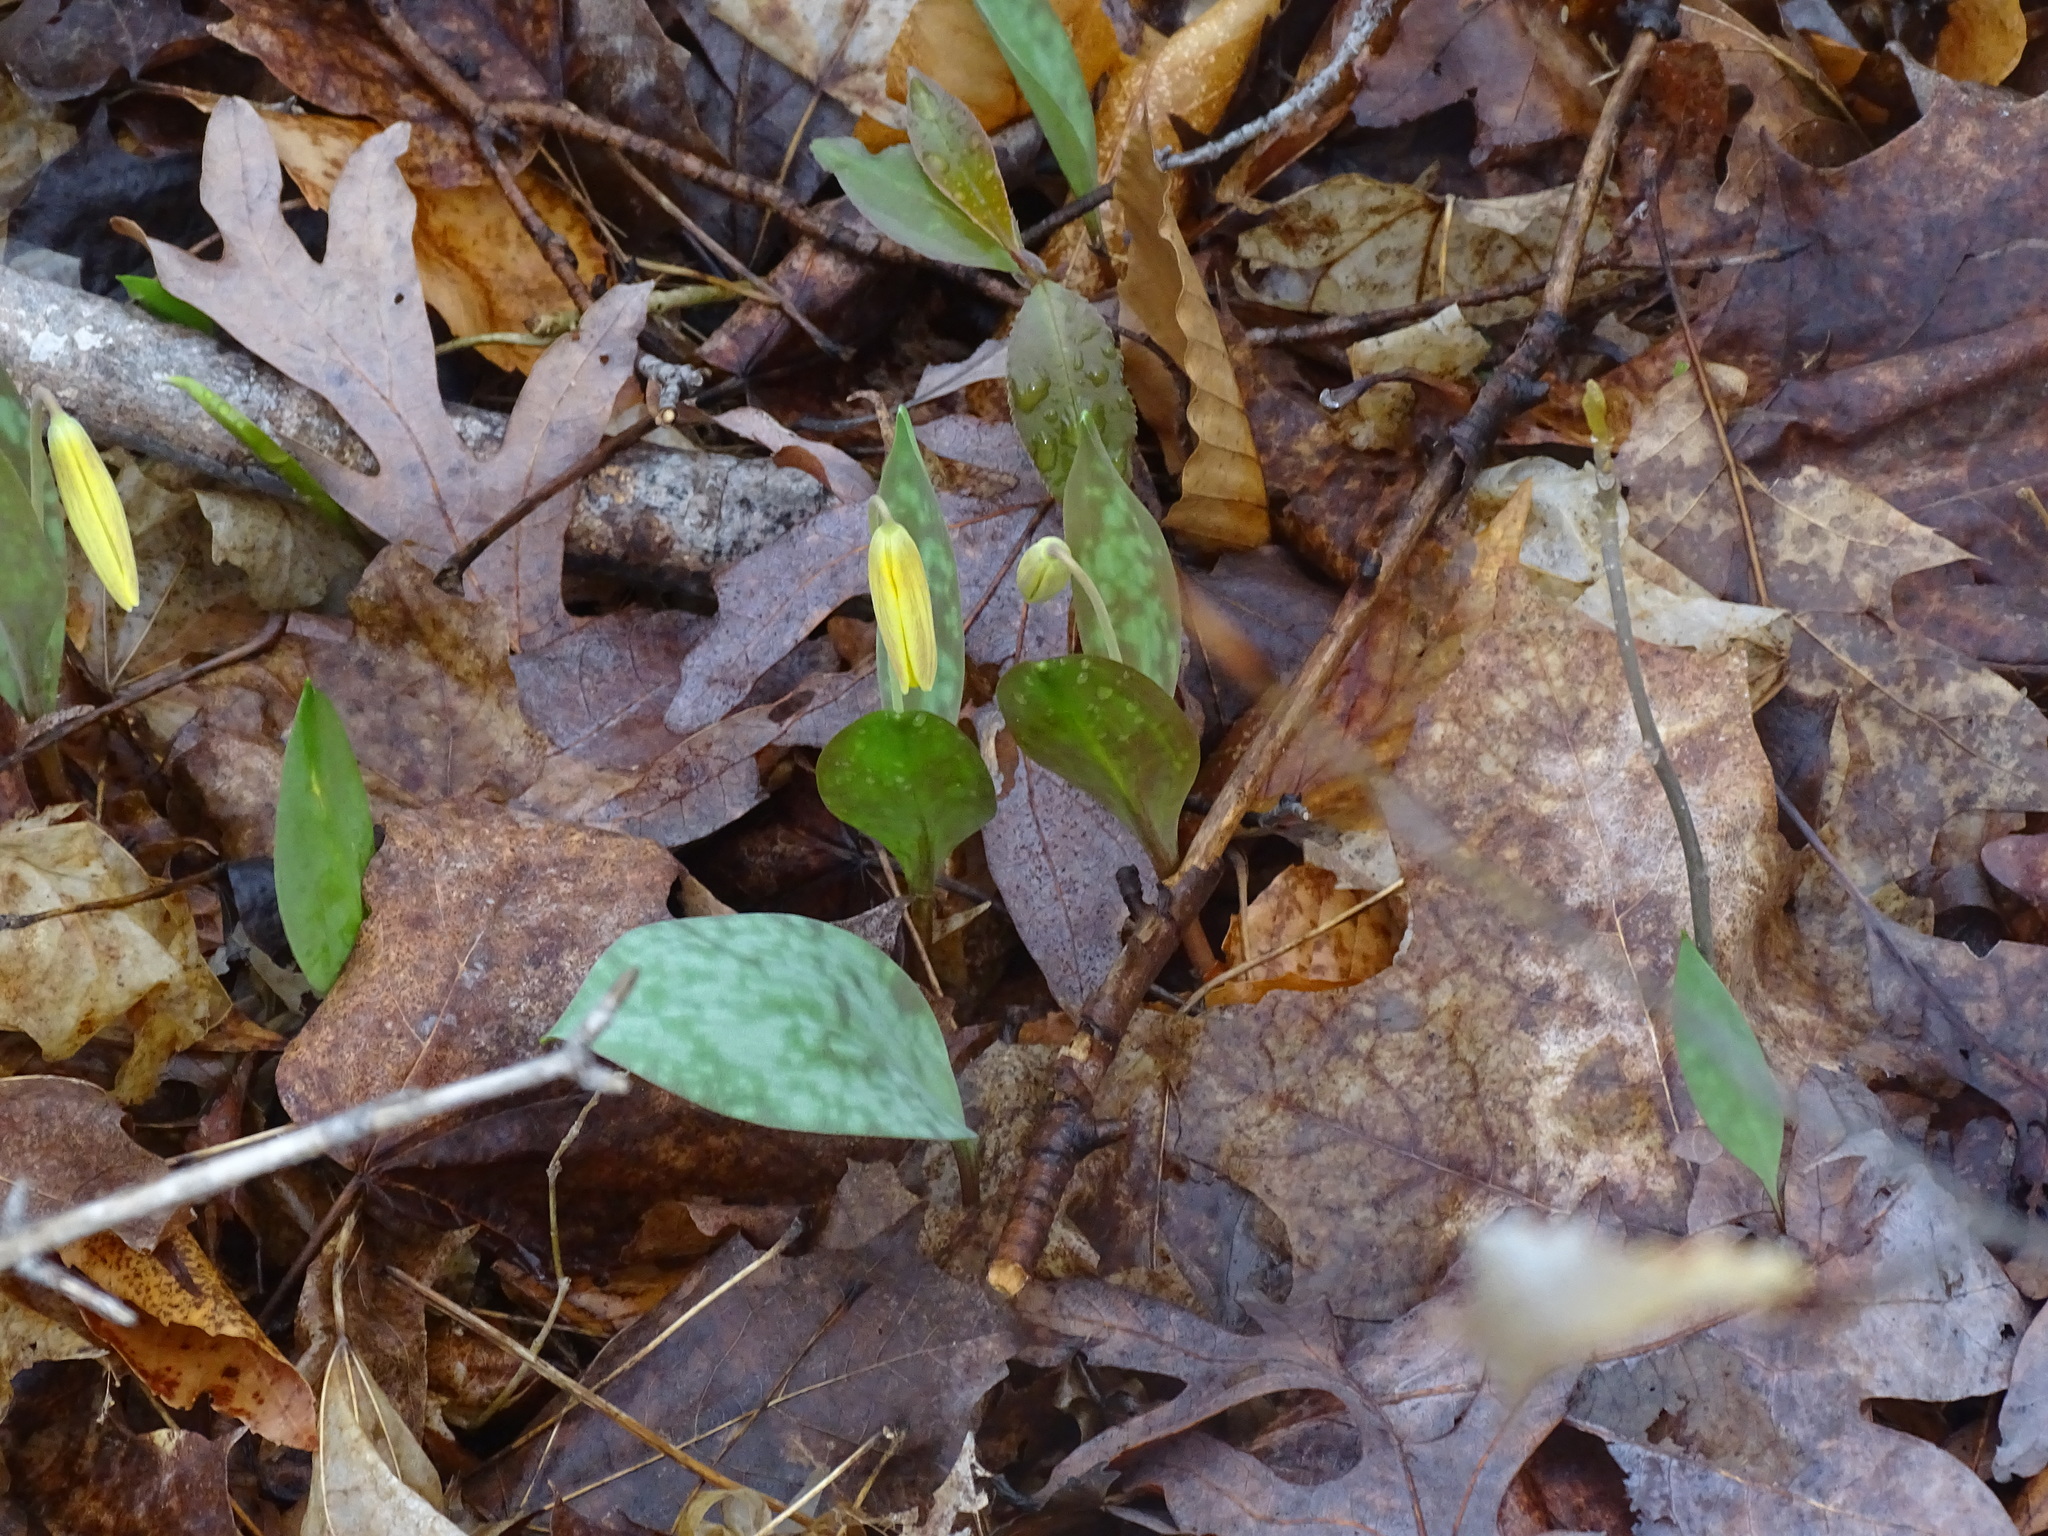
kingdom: Plantae
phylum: Tracheophyta
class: Liliopsida
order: Liliales
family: Liliaceae
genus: Erythronium
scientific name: Erythronium americanum
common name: Yellow adder's-tongue
